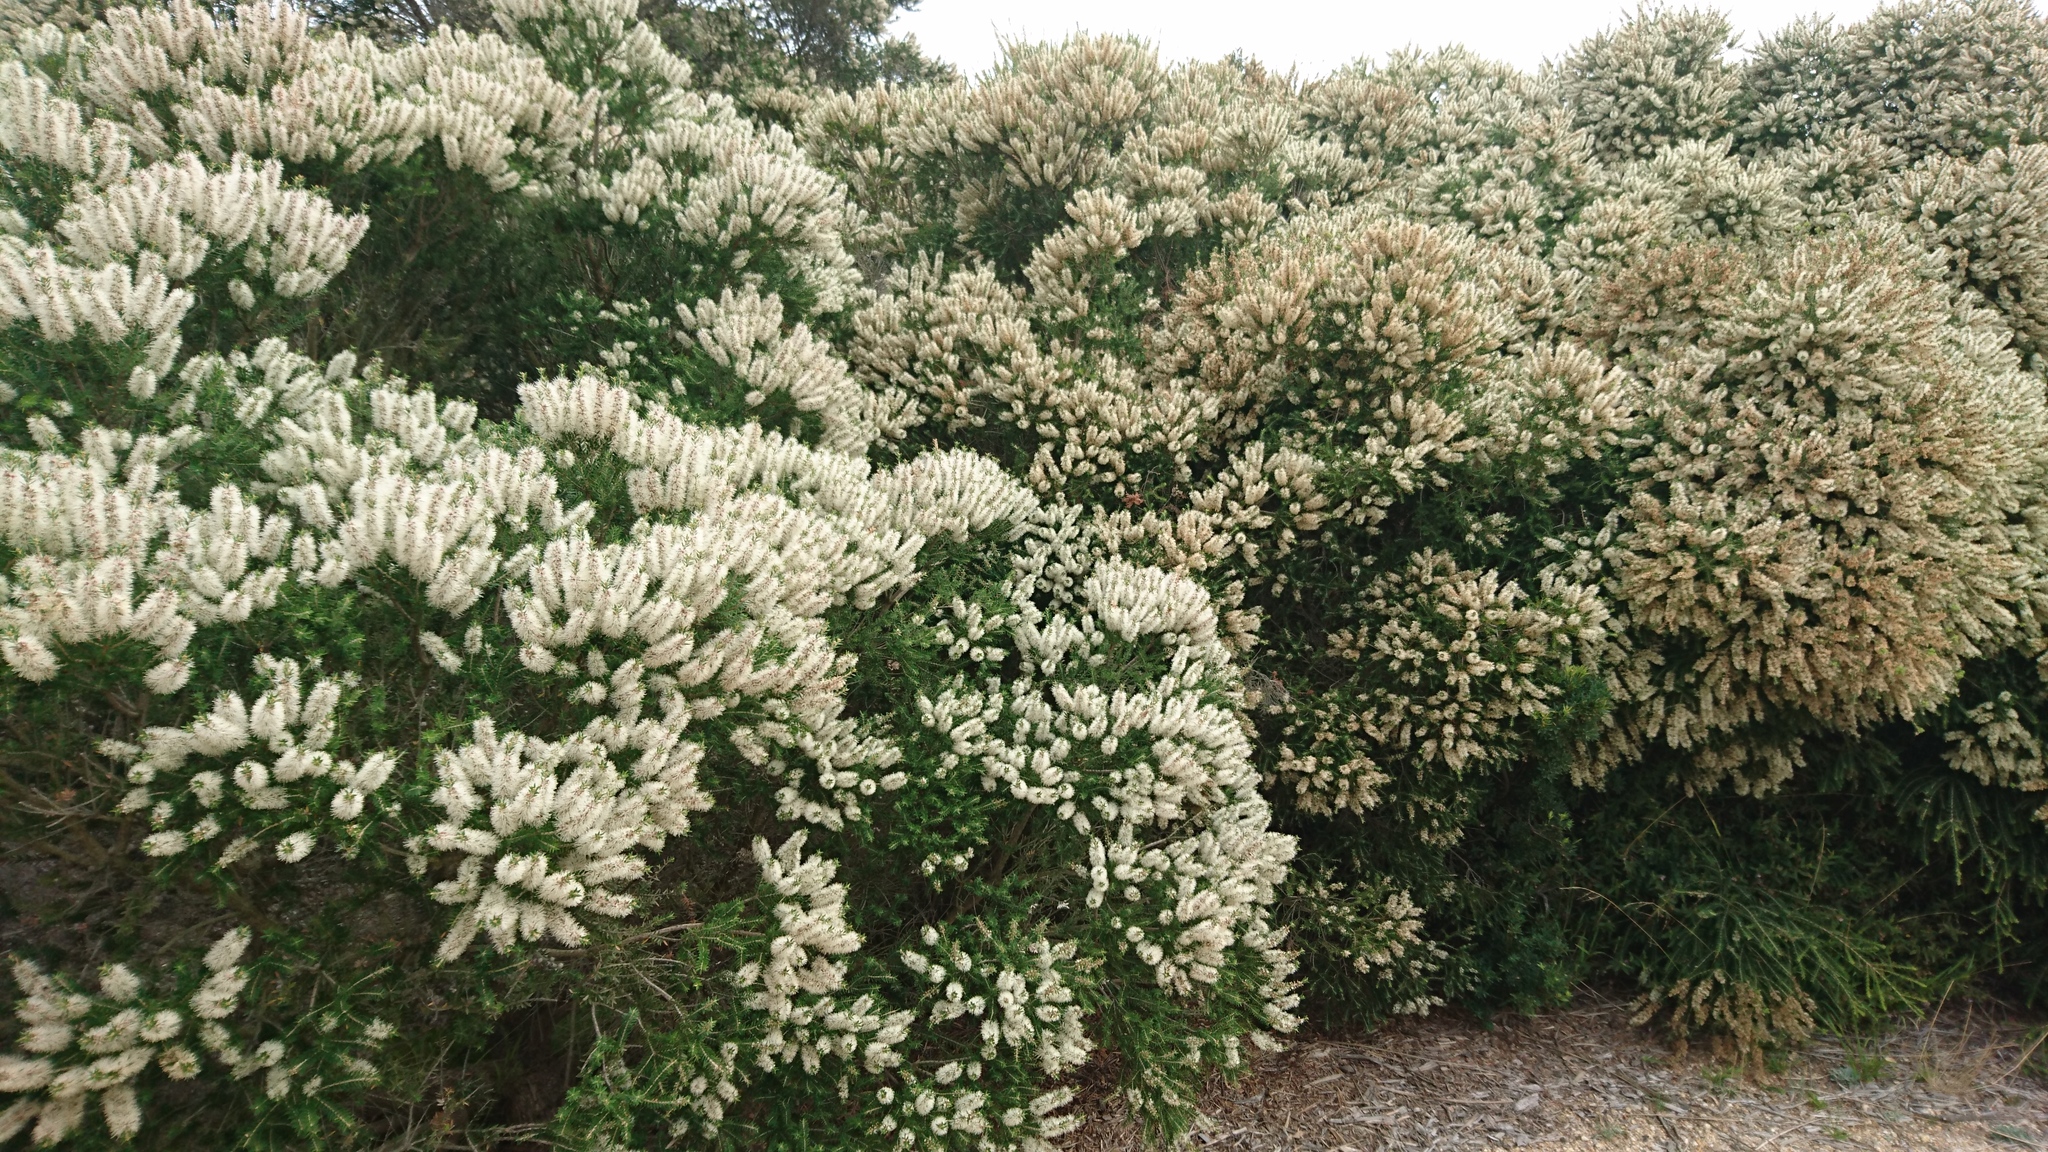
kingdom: Plantae
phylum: Tracheophyta
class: Magnoliopsida
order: Myrtales
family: Myrtaceae
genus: Melaleuca
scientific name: Melaleuca lanceolata
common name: Rottnest island teatree
